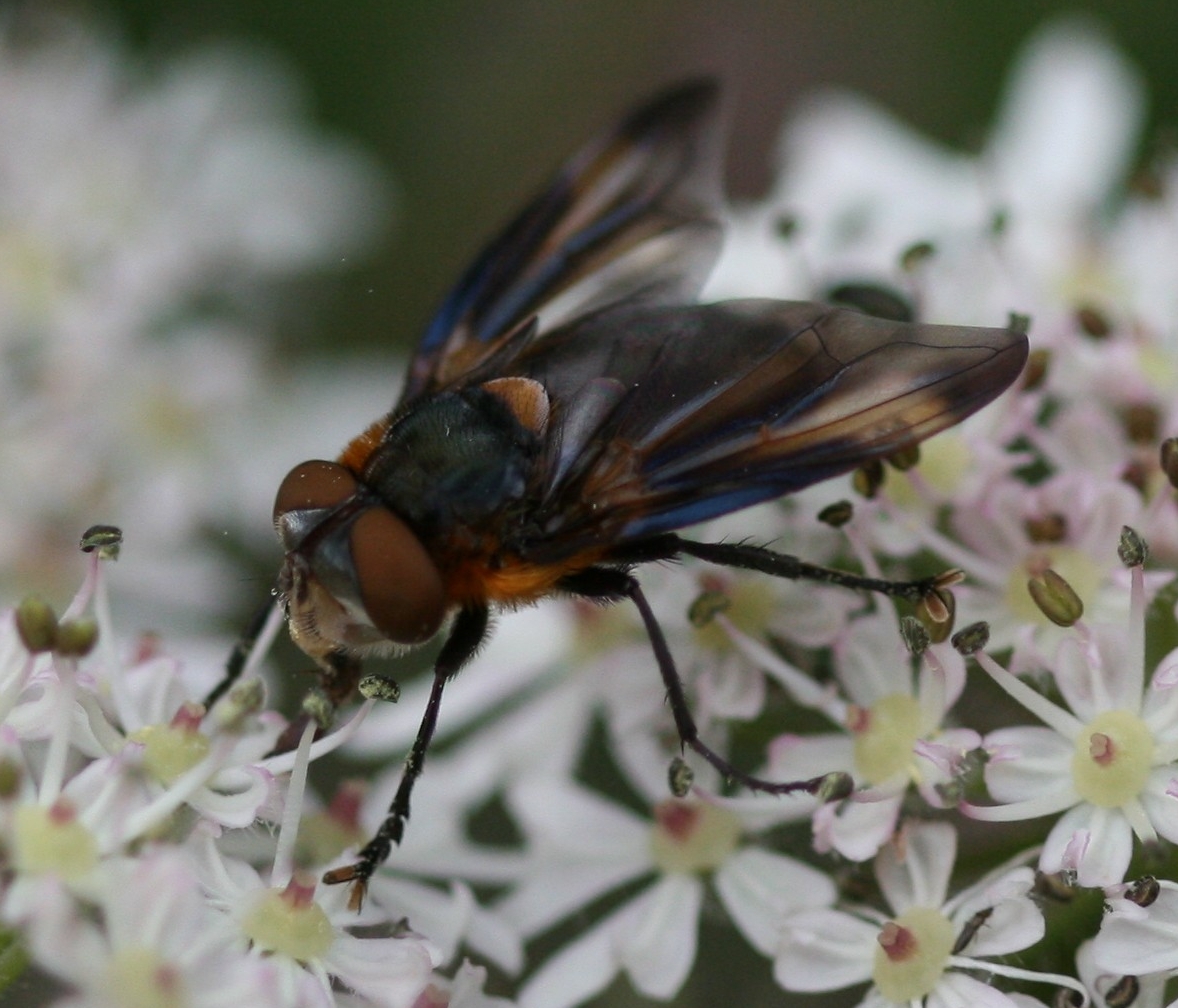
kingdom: Animalia
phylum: Arthropoda
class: Insecta
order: Diptera
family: Tachinidae
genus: Phasia
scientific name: Phasia hemiptera
